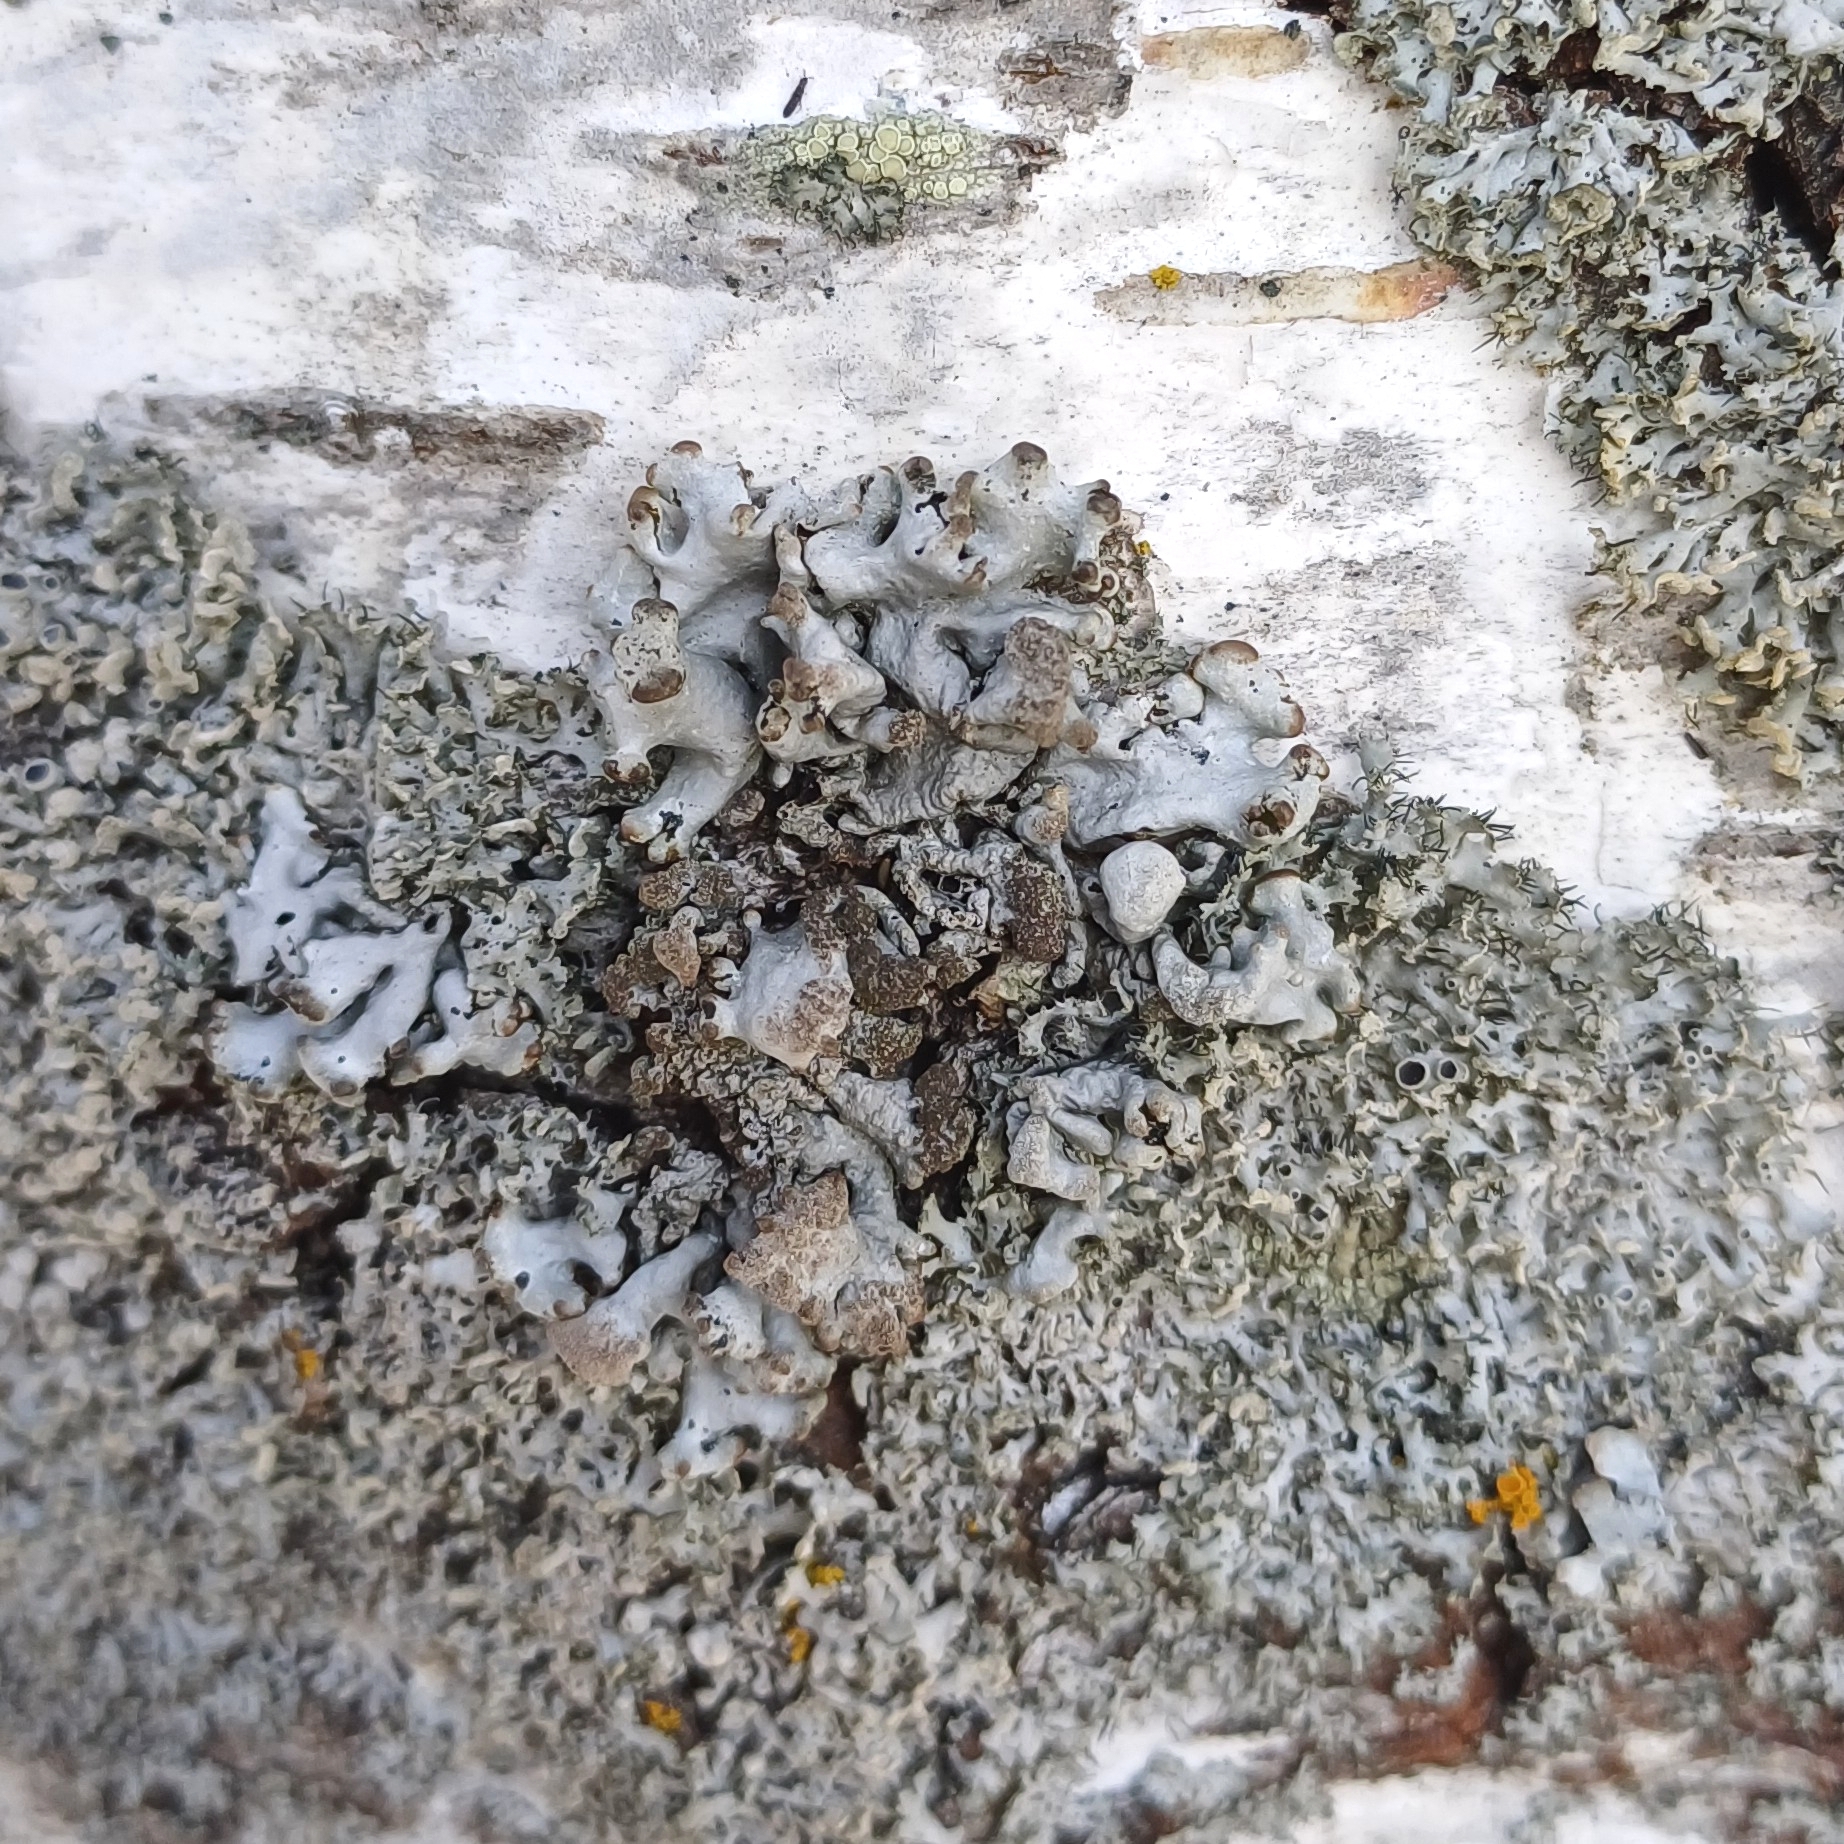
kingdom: Fungi
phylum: Ascomycota
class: Lecanoromycetes
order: Lecanorales
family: Parmeliaceae
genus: Hypogymnia
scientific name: Hypogymnia tubulosa
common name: Powder-headed tube lichen
